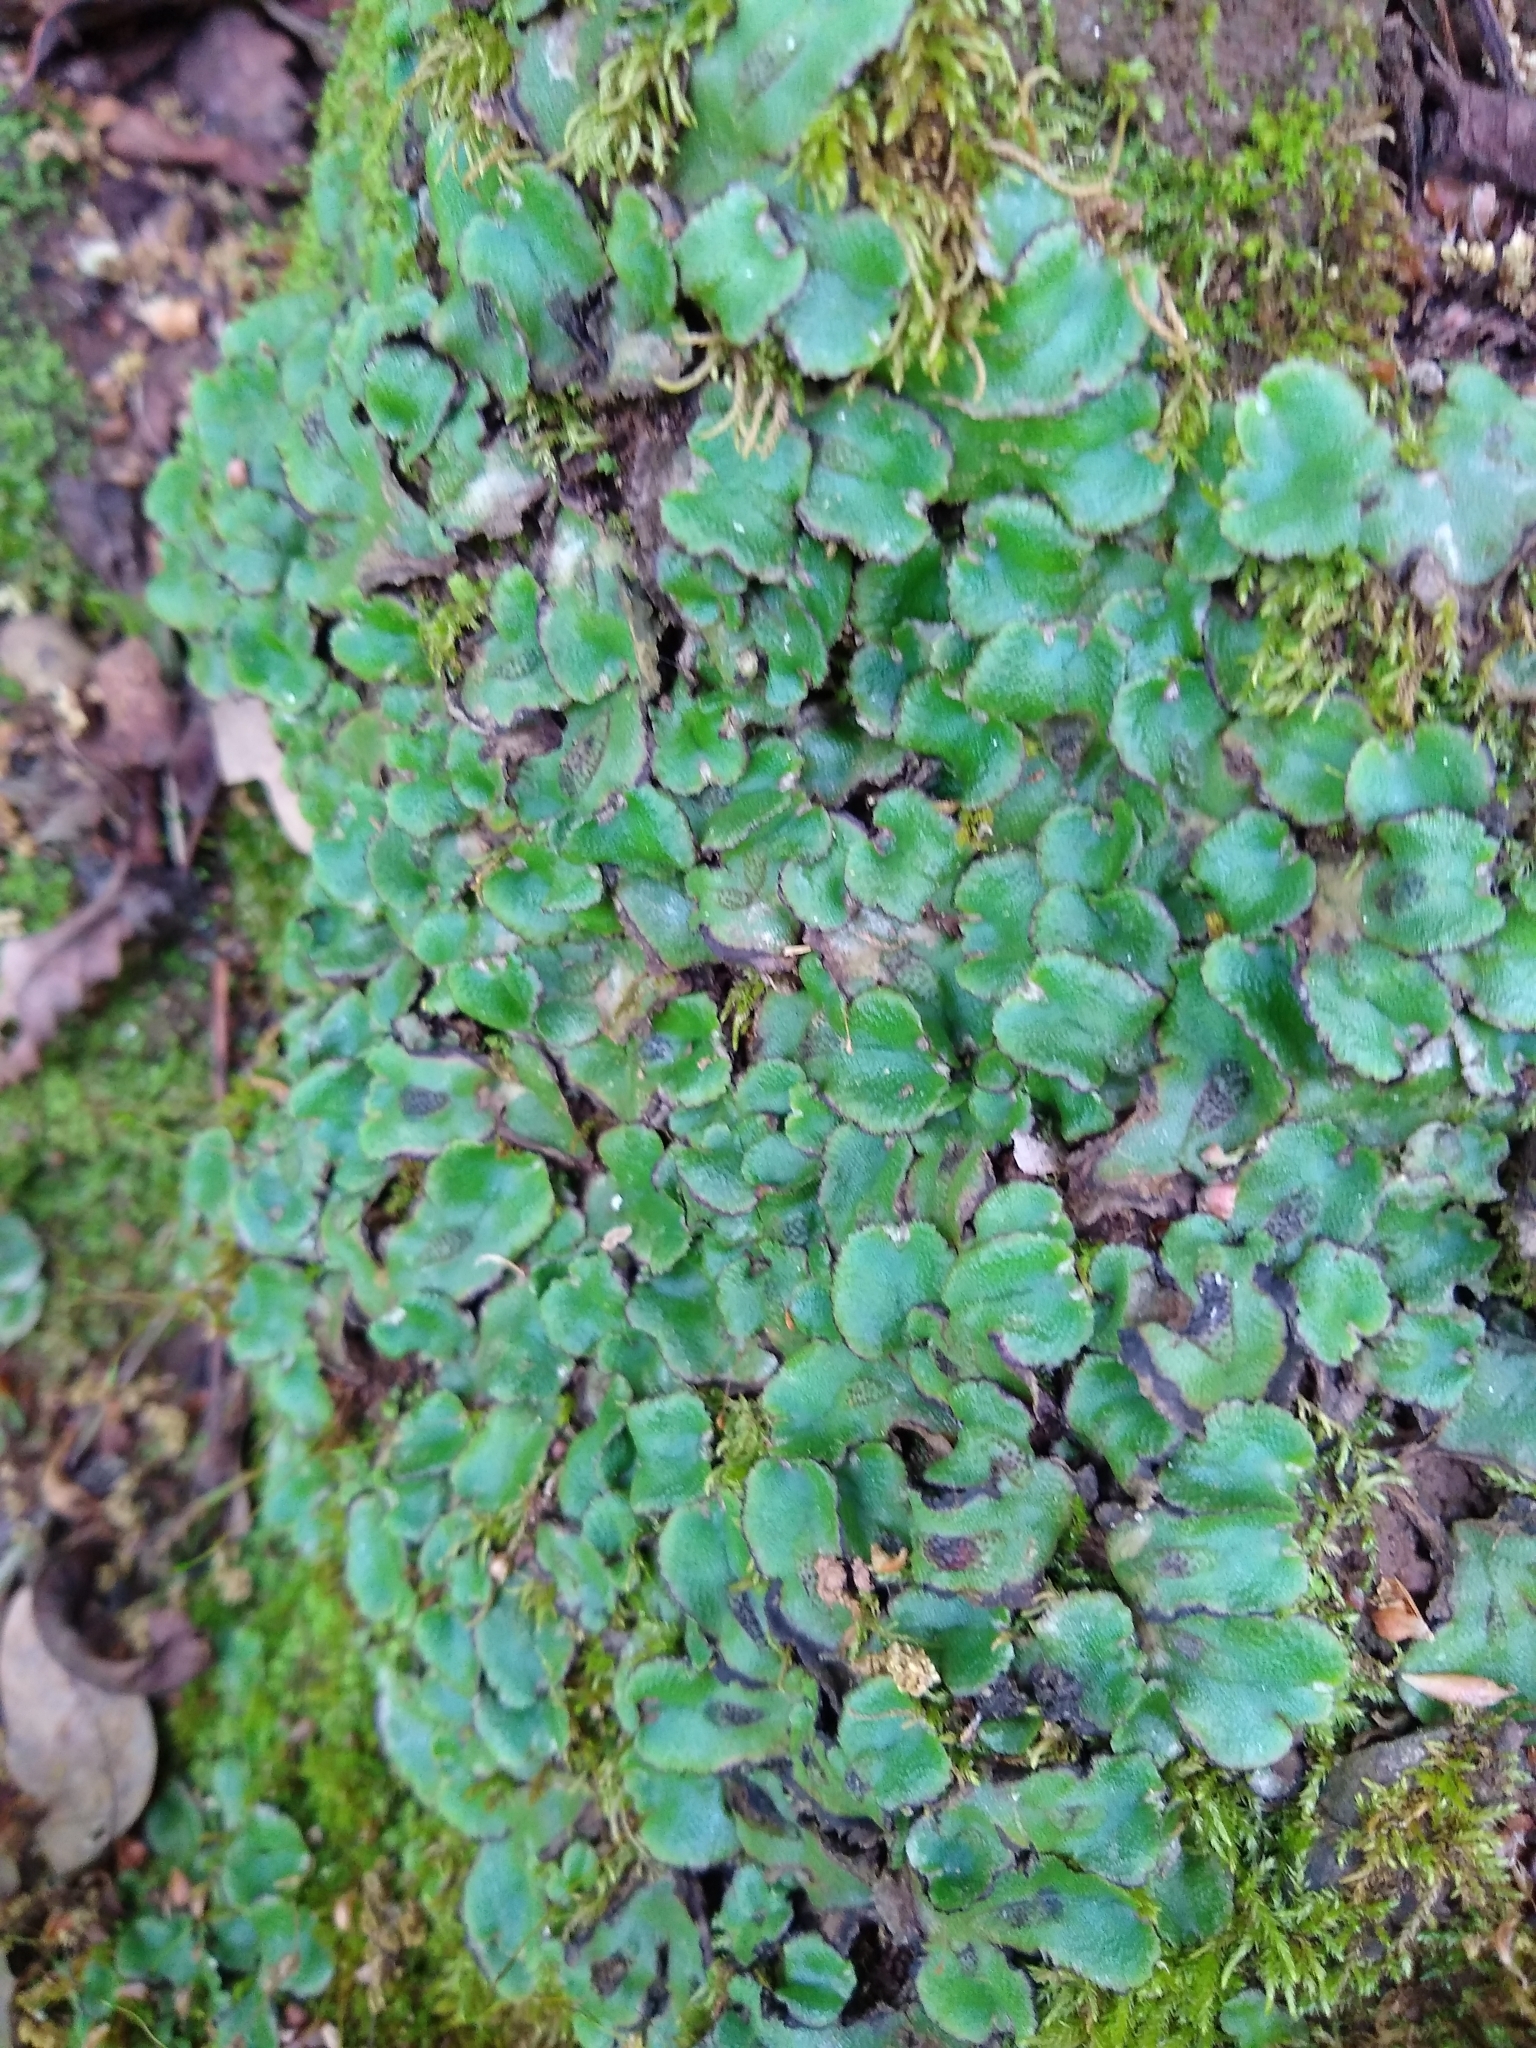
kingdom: Plantae
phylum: Marchantiophyta
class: Marchantiopsida
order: Marchantiales
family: Aytoniaceae
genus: Asterella
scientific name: Asterella californica
